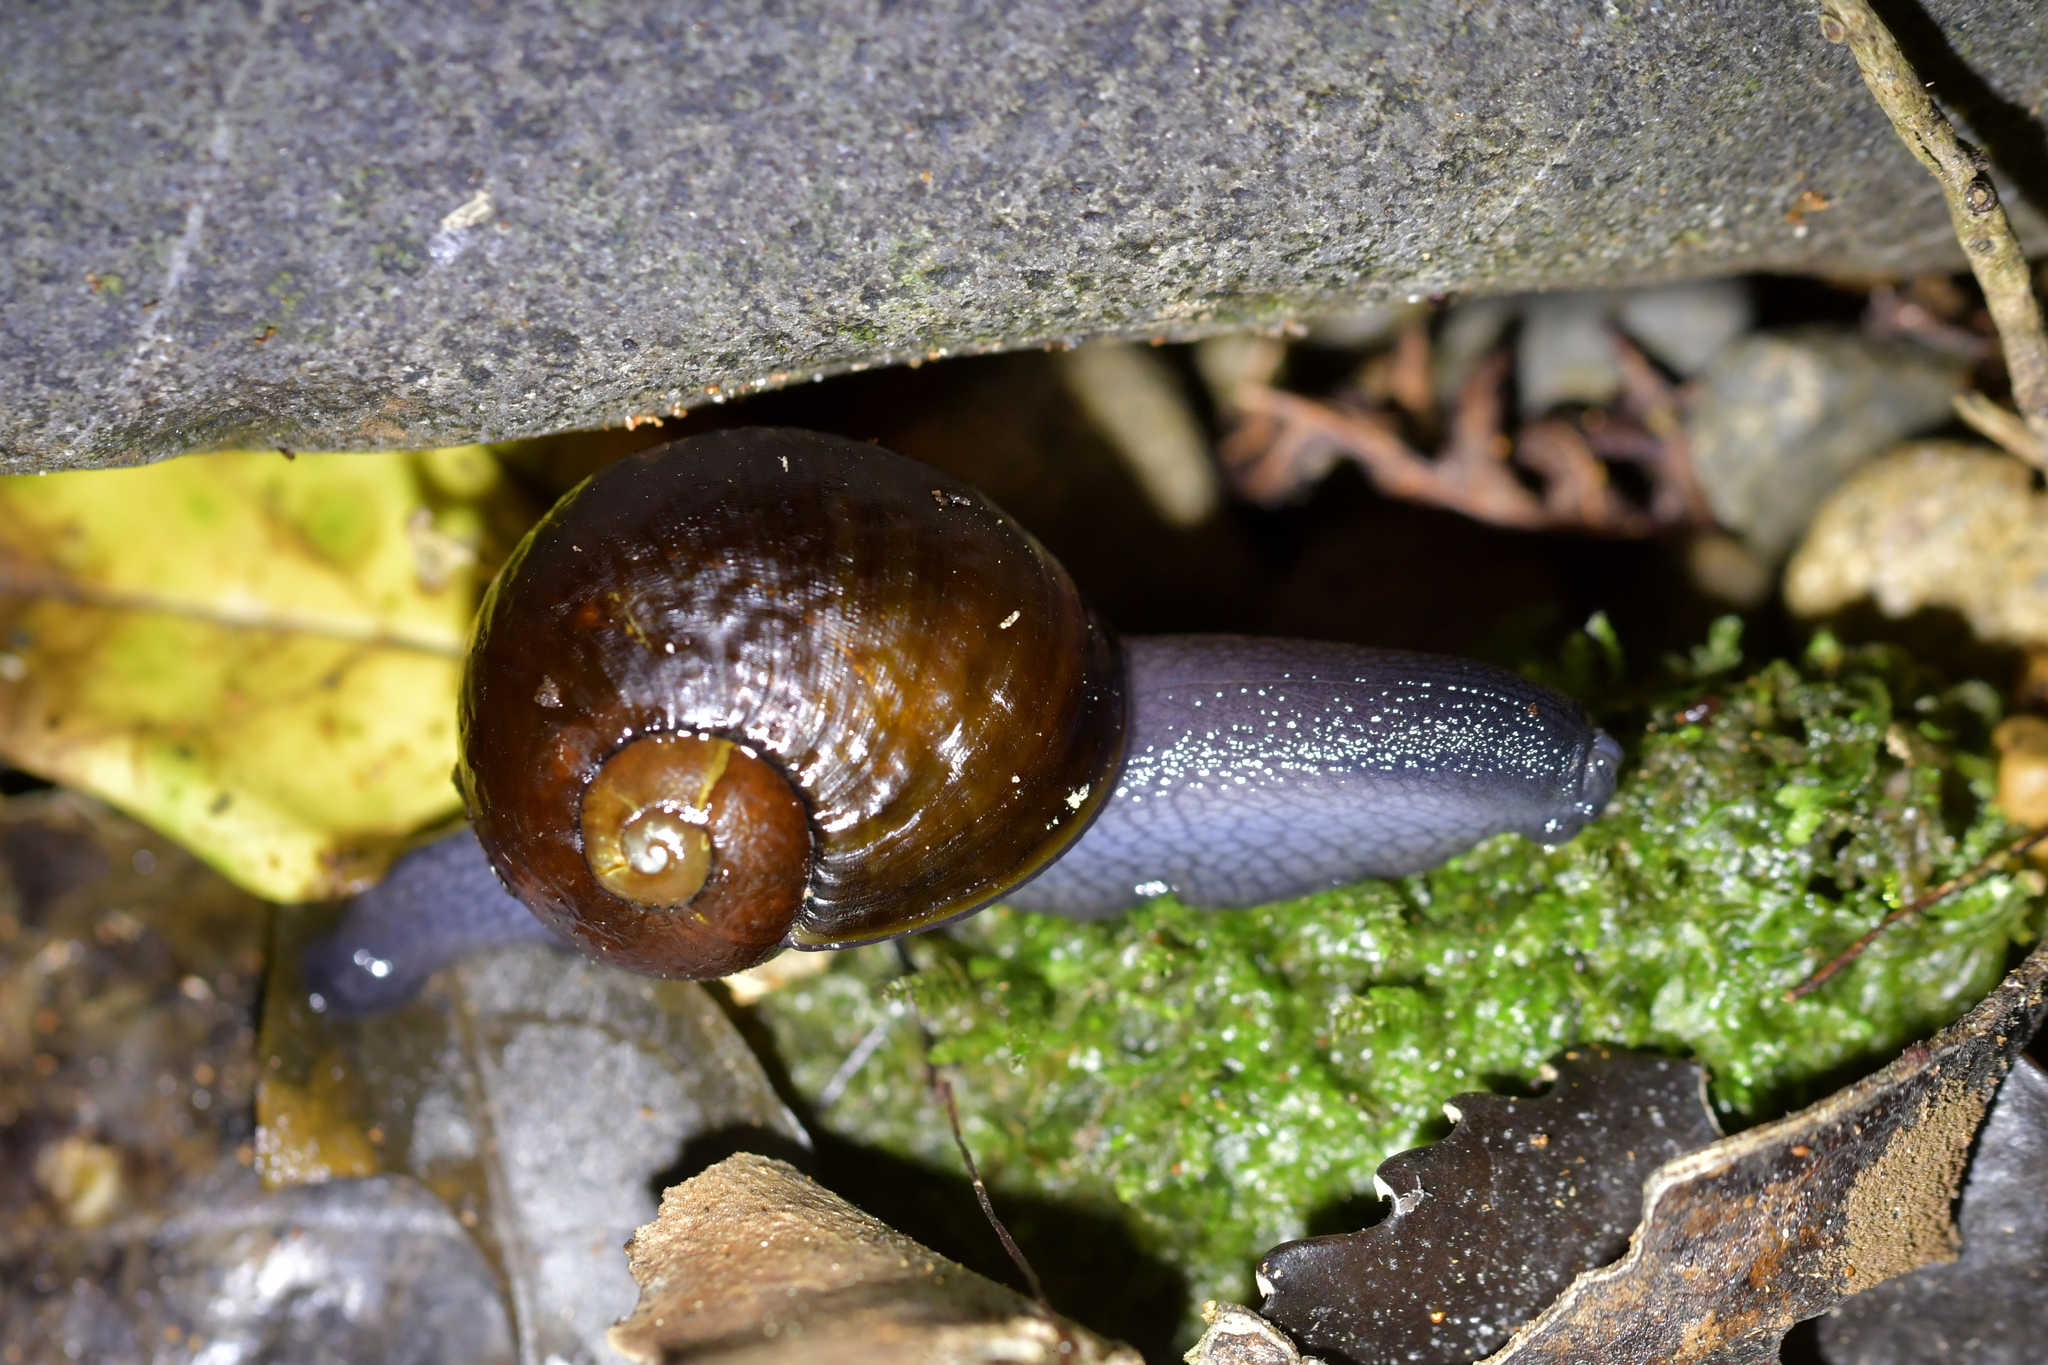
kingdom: Animalia
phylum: Mollusca
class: Gastropoda
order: Stylommatophora
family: Rhytididae
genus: Wainuia
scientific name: Wainuia urnula
